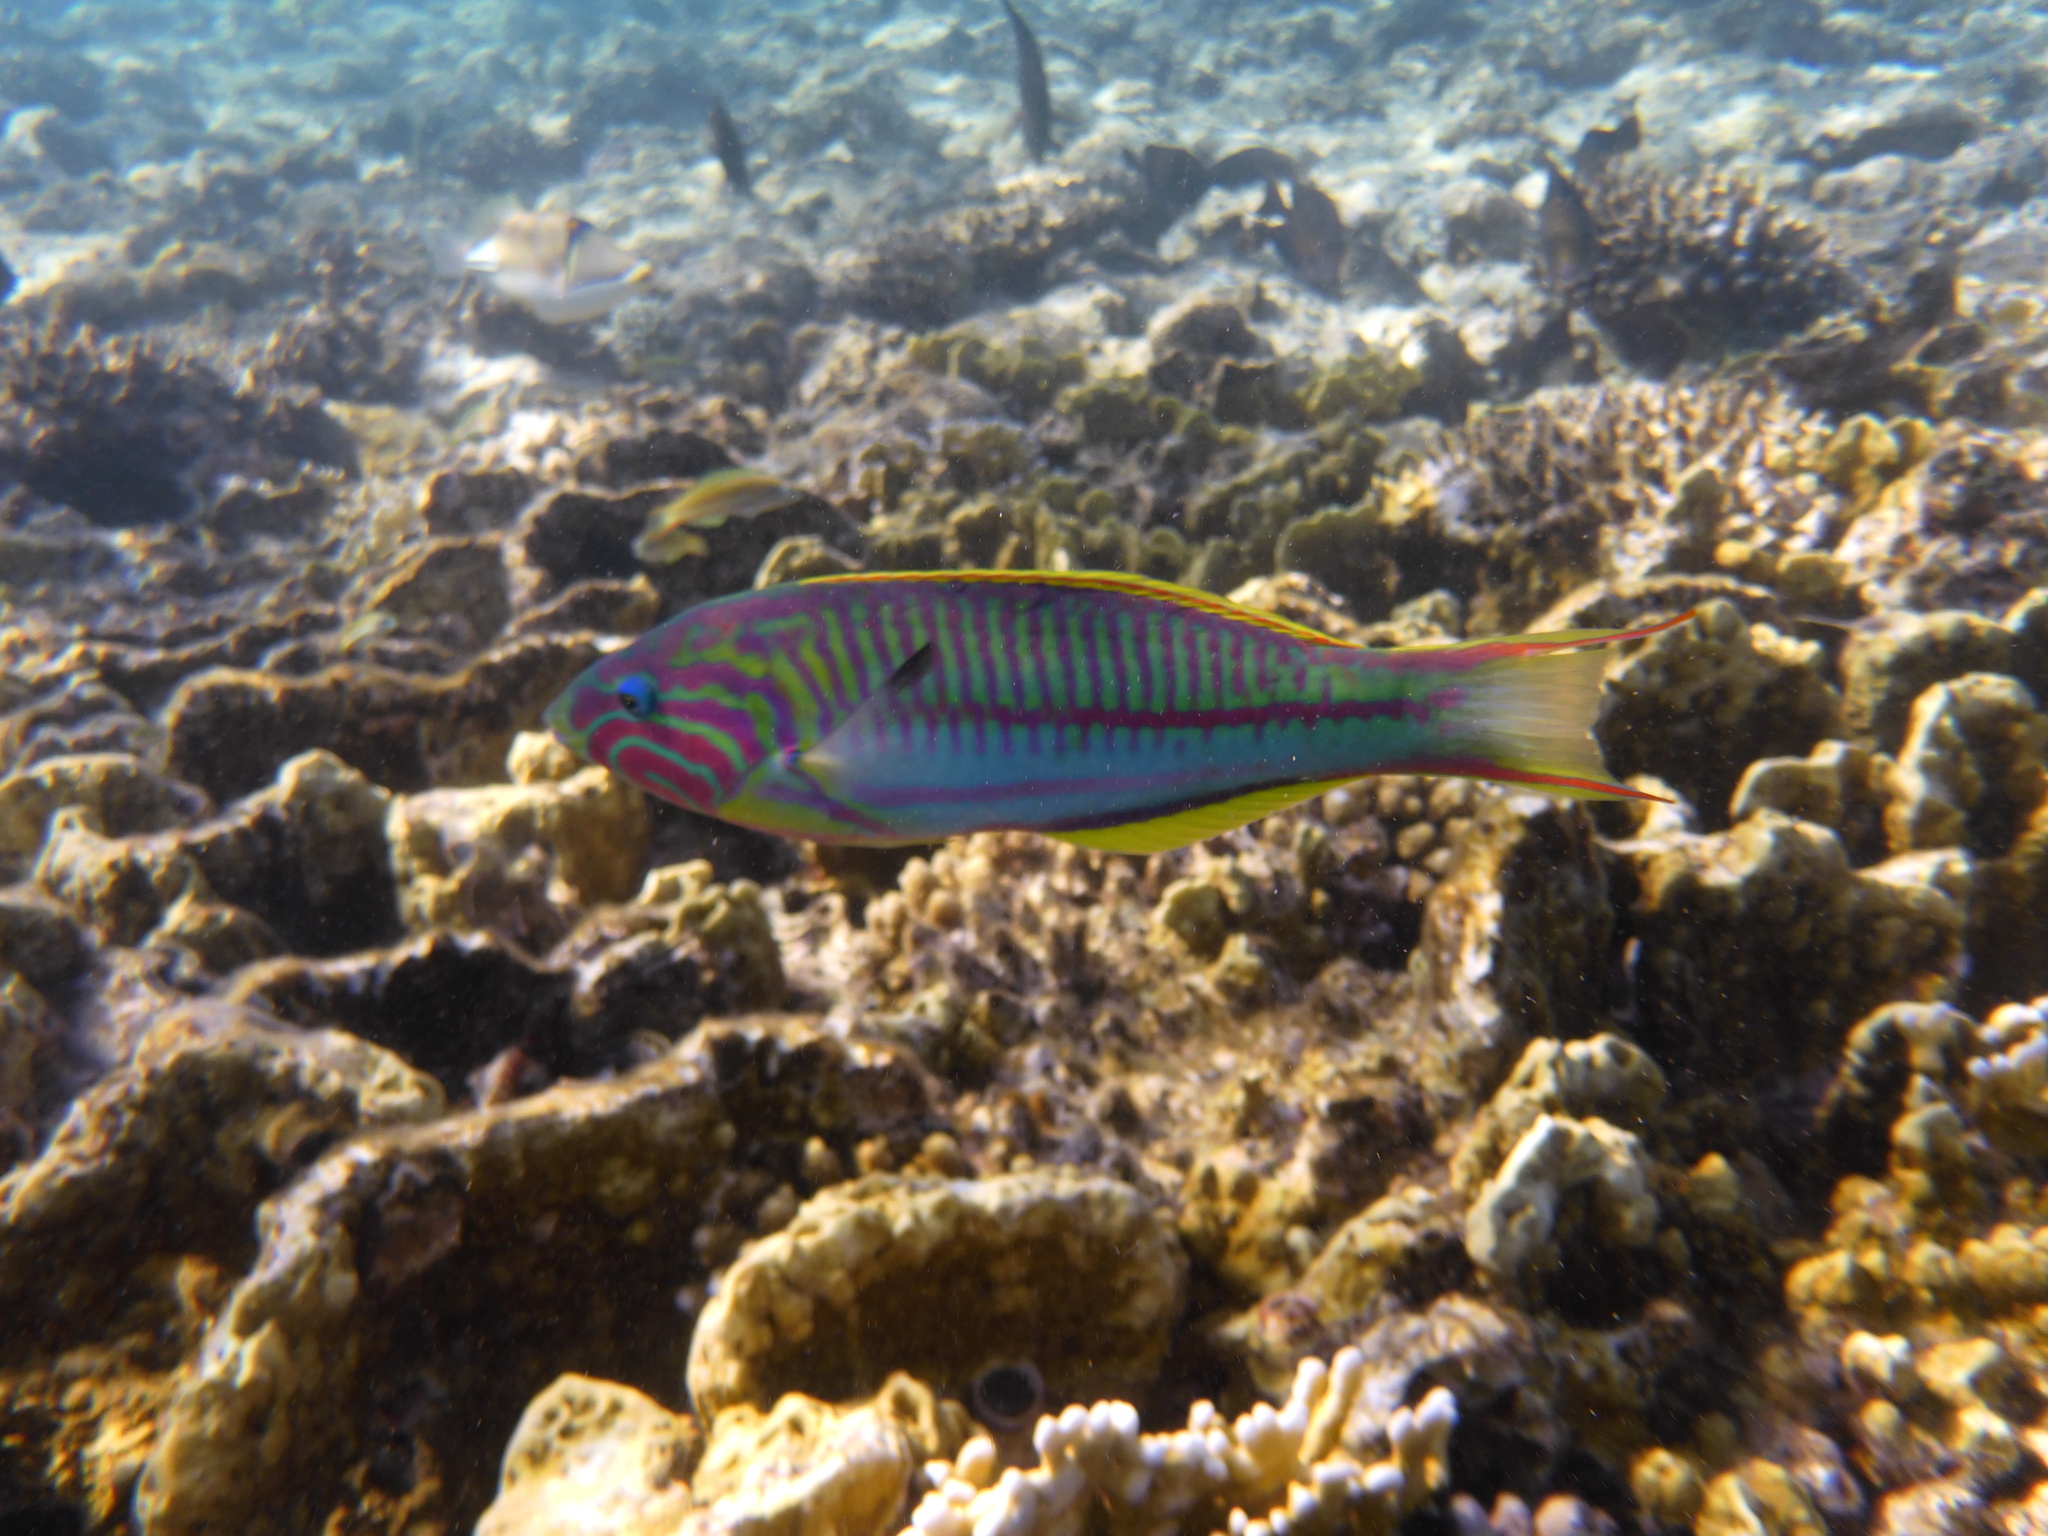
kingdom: Animalia
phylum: Chordata
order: Perciformes
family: Labridae
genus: Thalassoma
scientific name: Thalassoma rueppellii
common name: Klunzinger's wrasse
